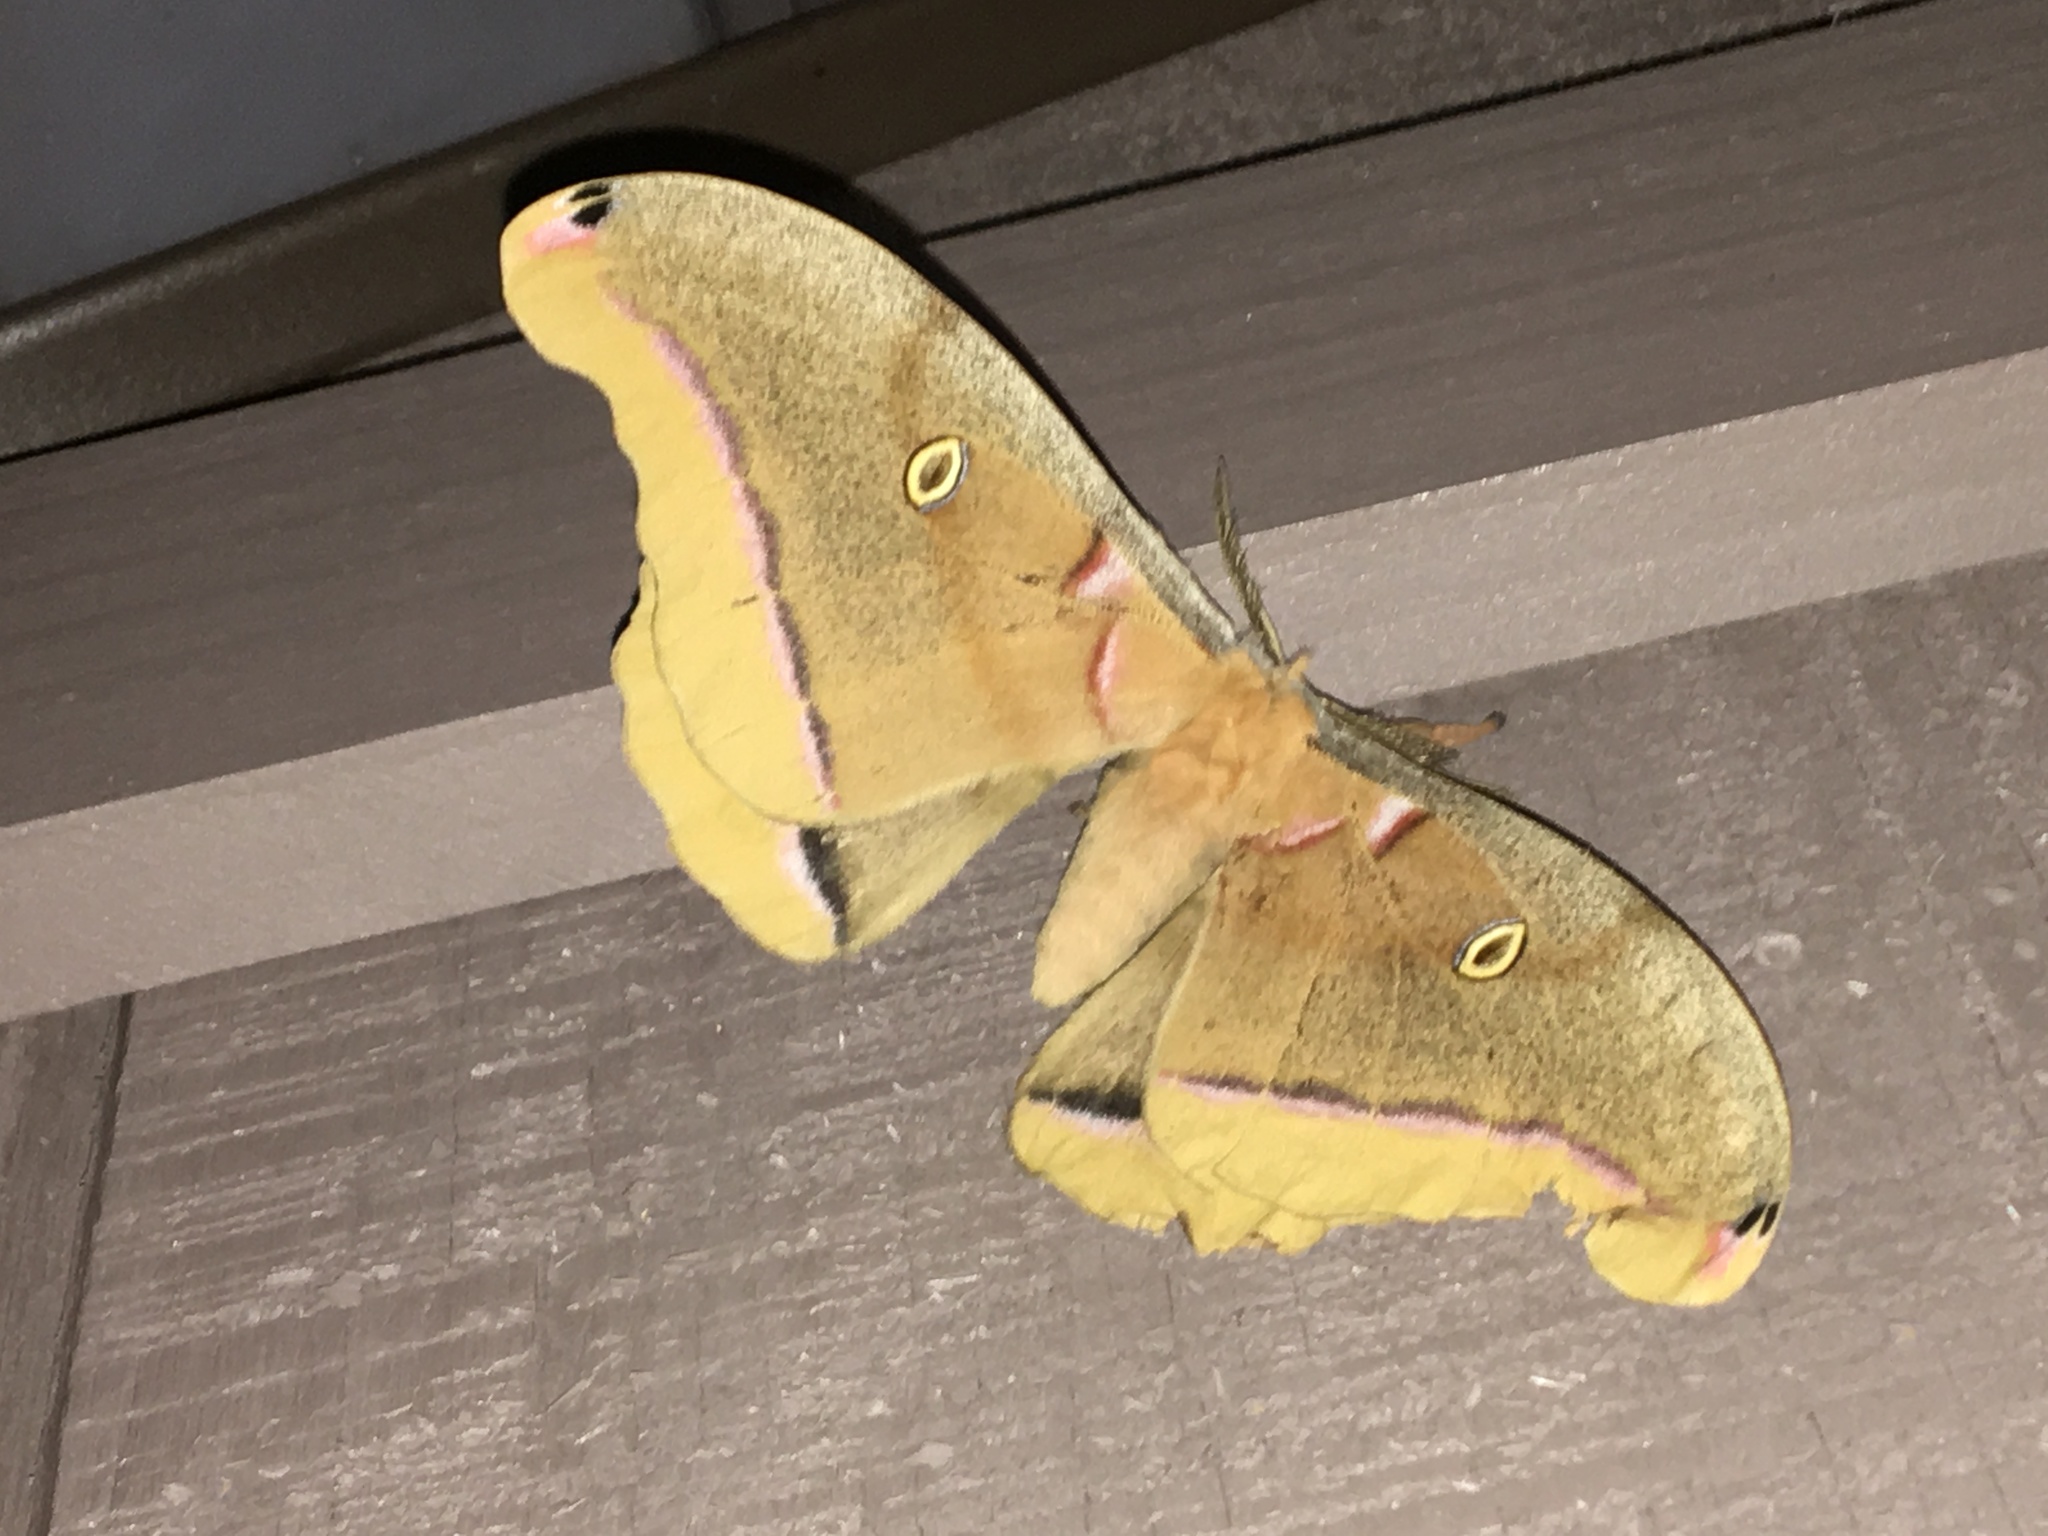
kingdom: Animalia
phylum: Arthropoda
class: Insecta
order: Lepidoptera
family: Saturniidae
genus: Antheraea
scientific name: Antheraea polyphemus
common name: Polyphemus moth
